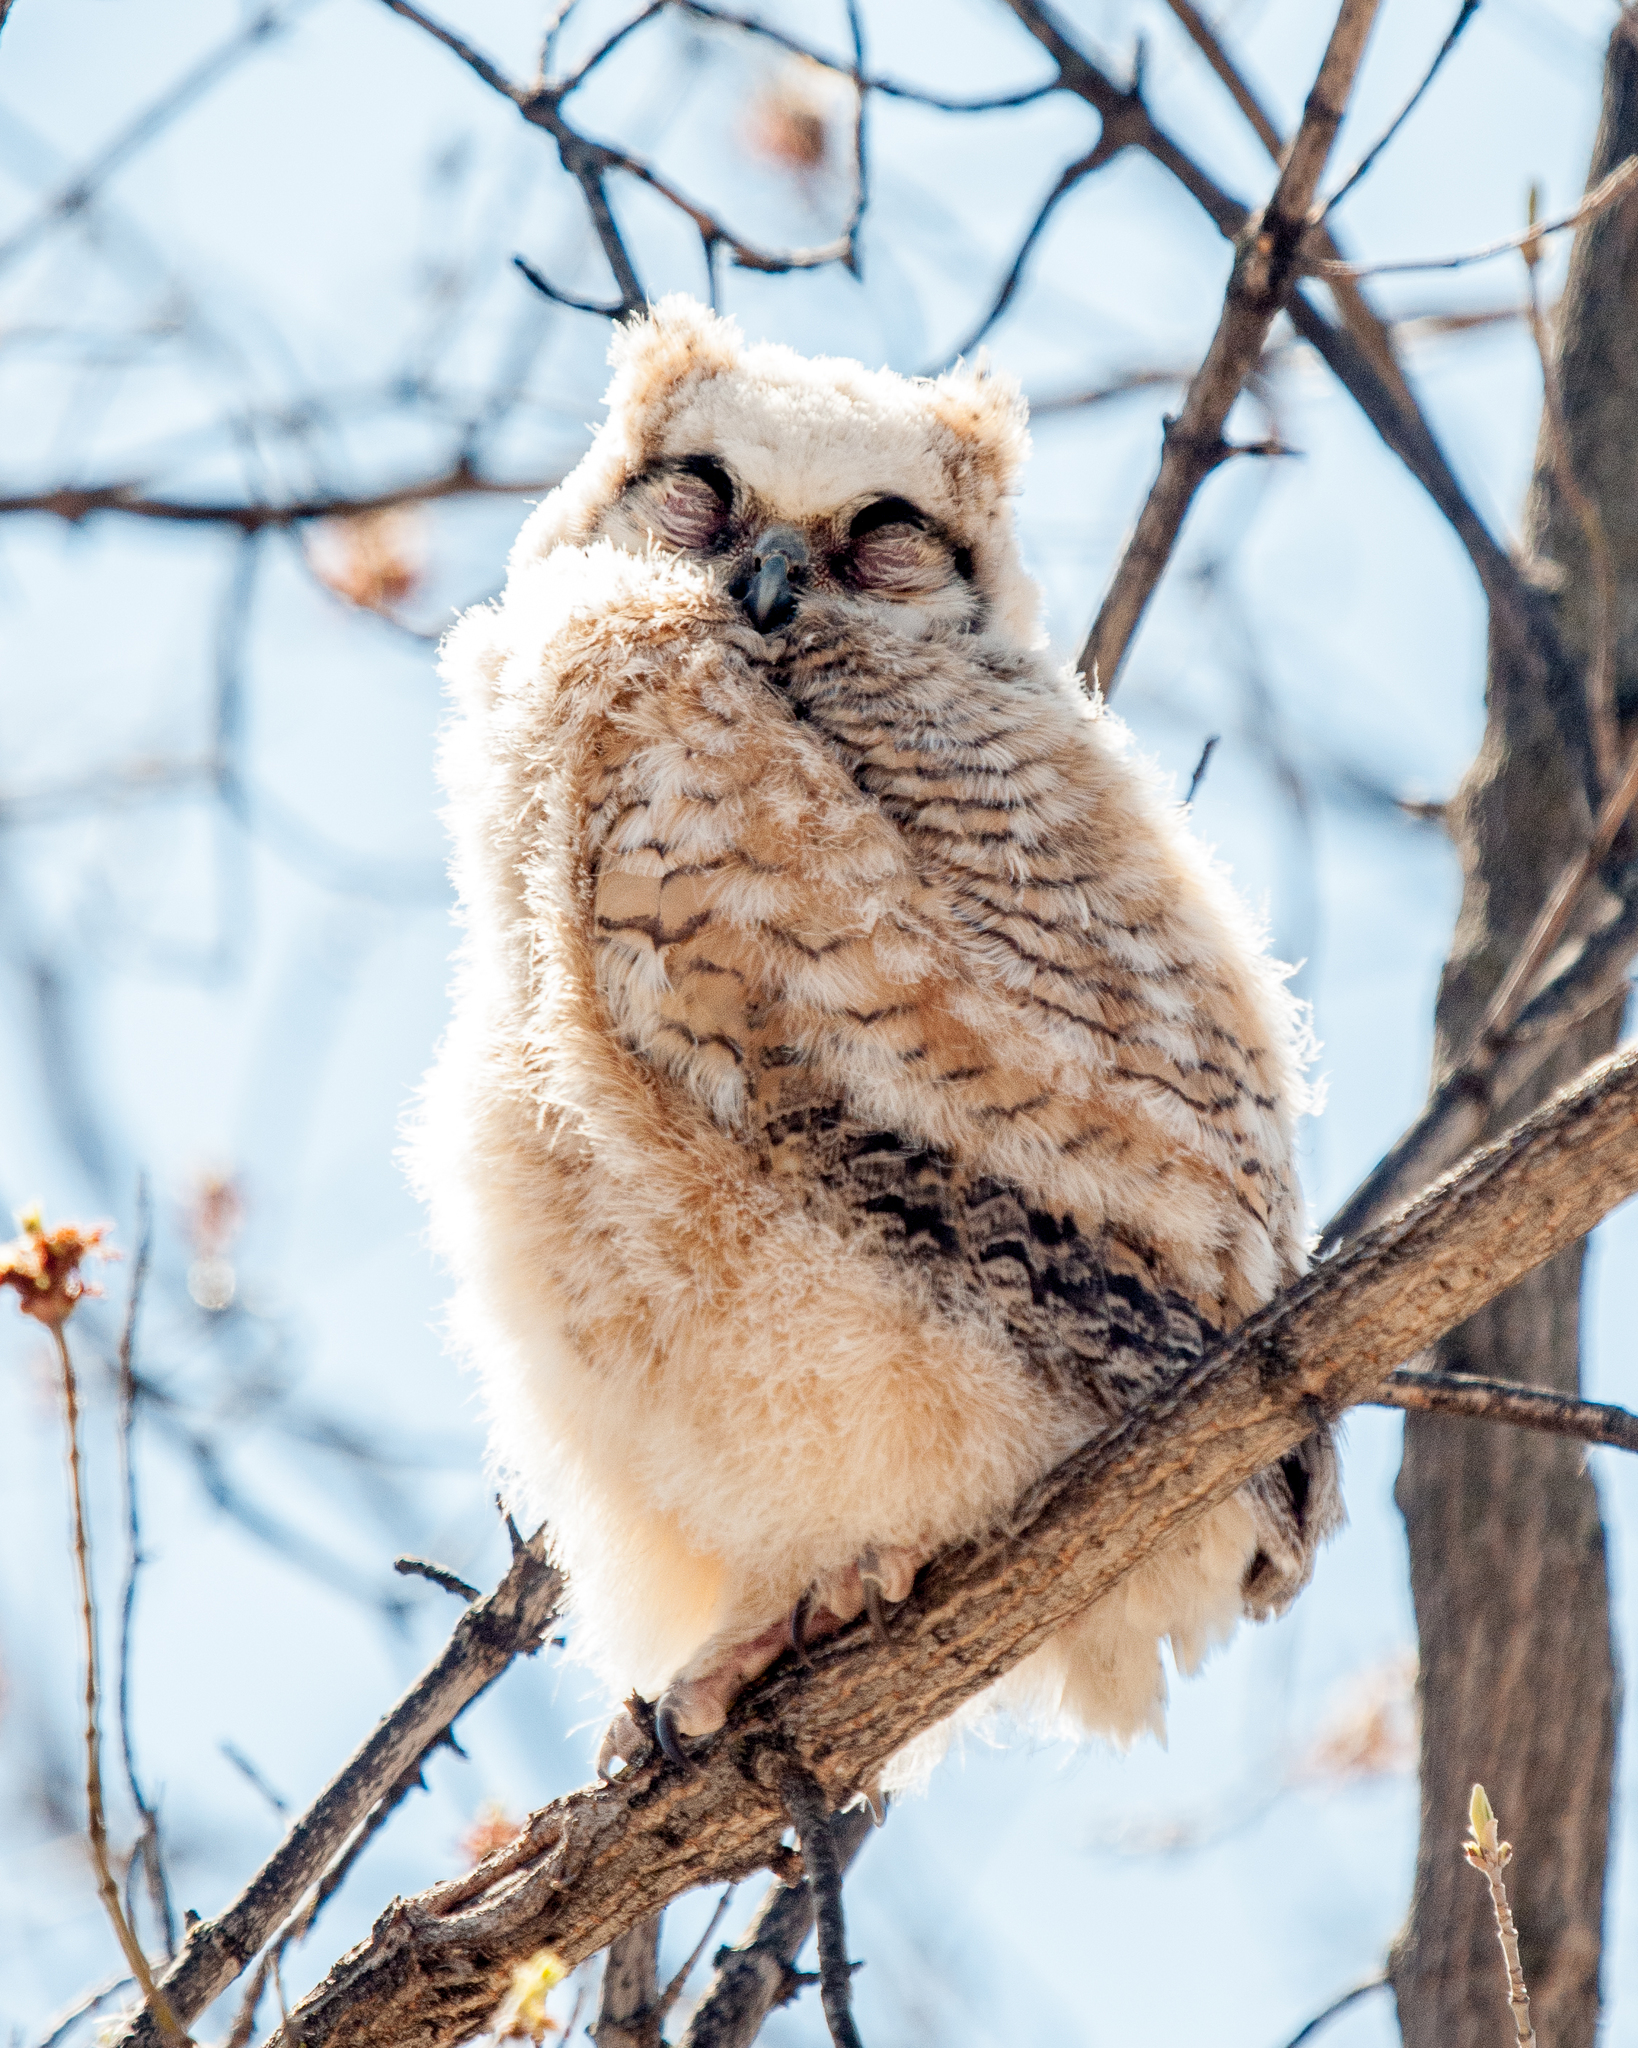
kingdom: Animalia
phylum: Chordata
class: Aves
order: Strigiformes
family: Strigidae
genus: Bubo
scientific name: Bubo virginianus
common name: Great horned owl
